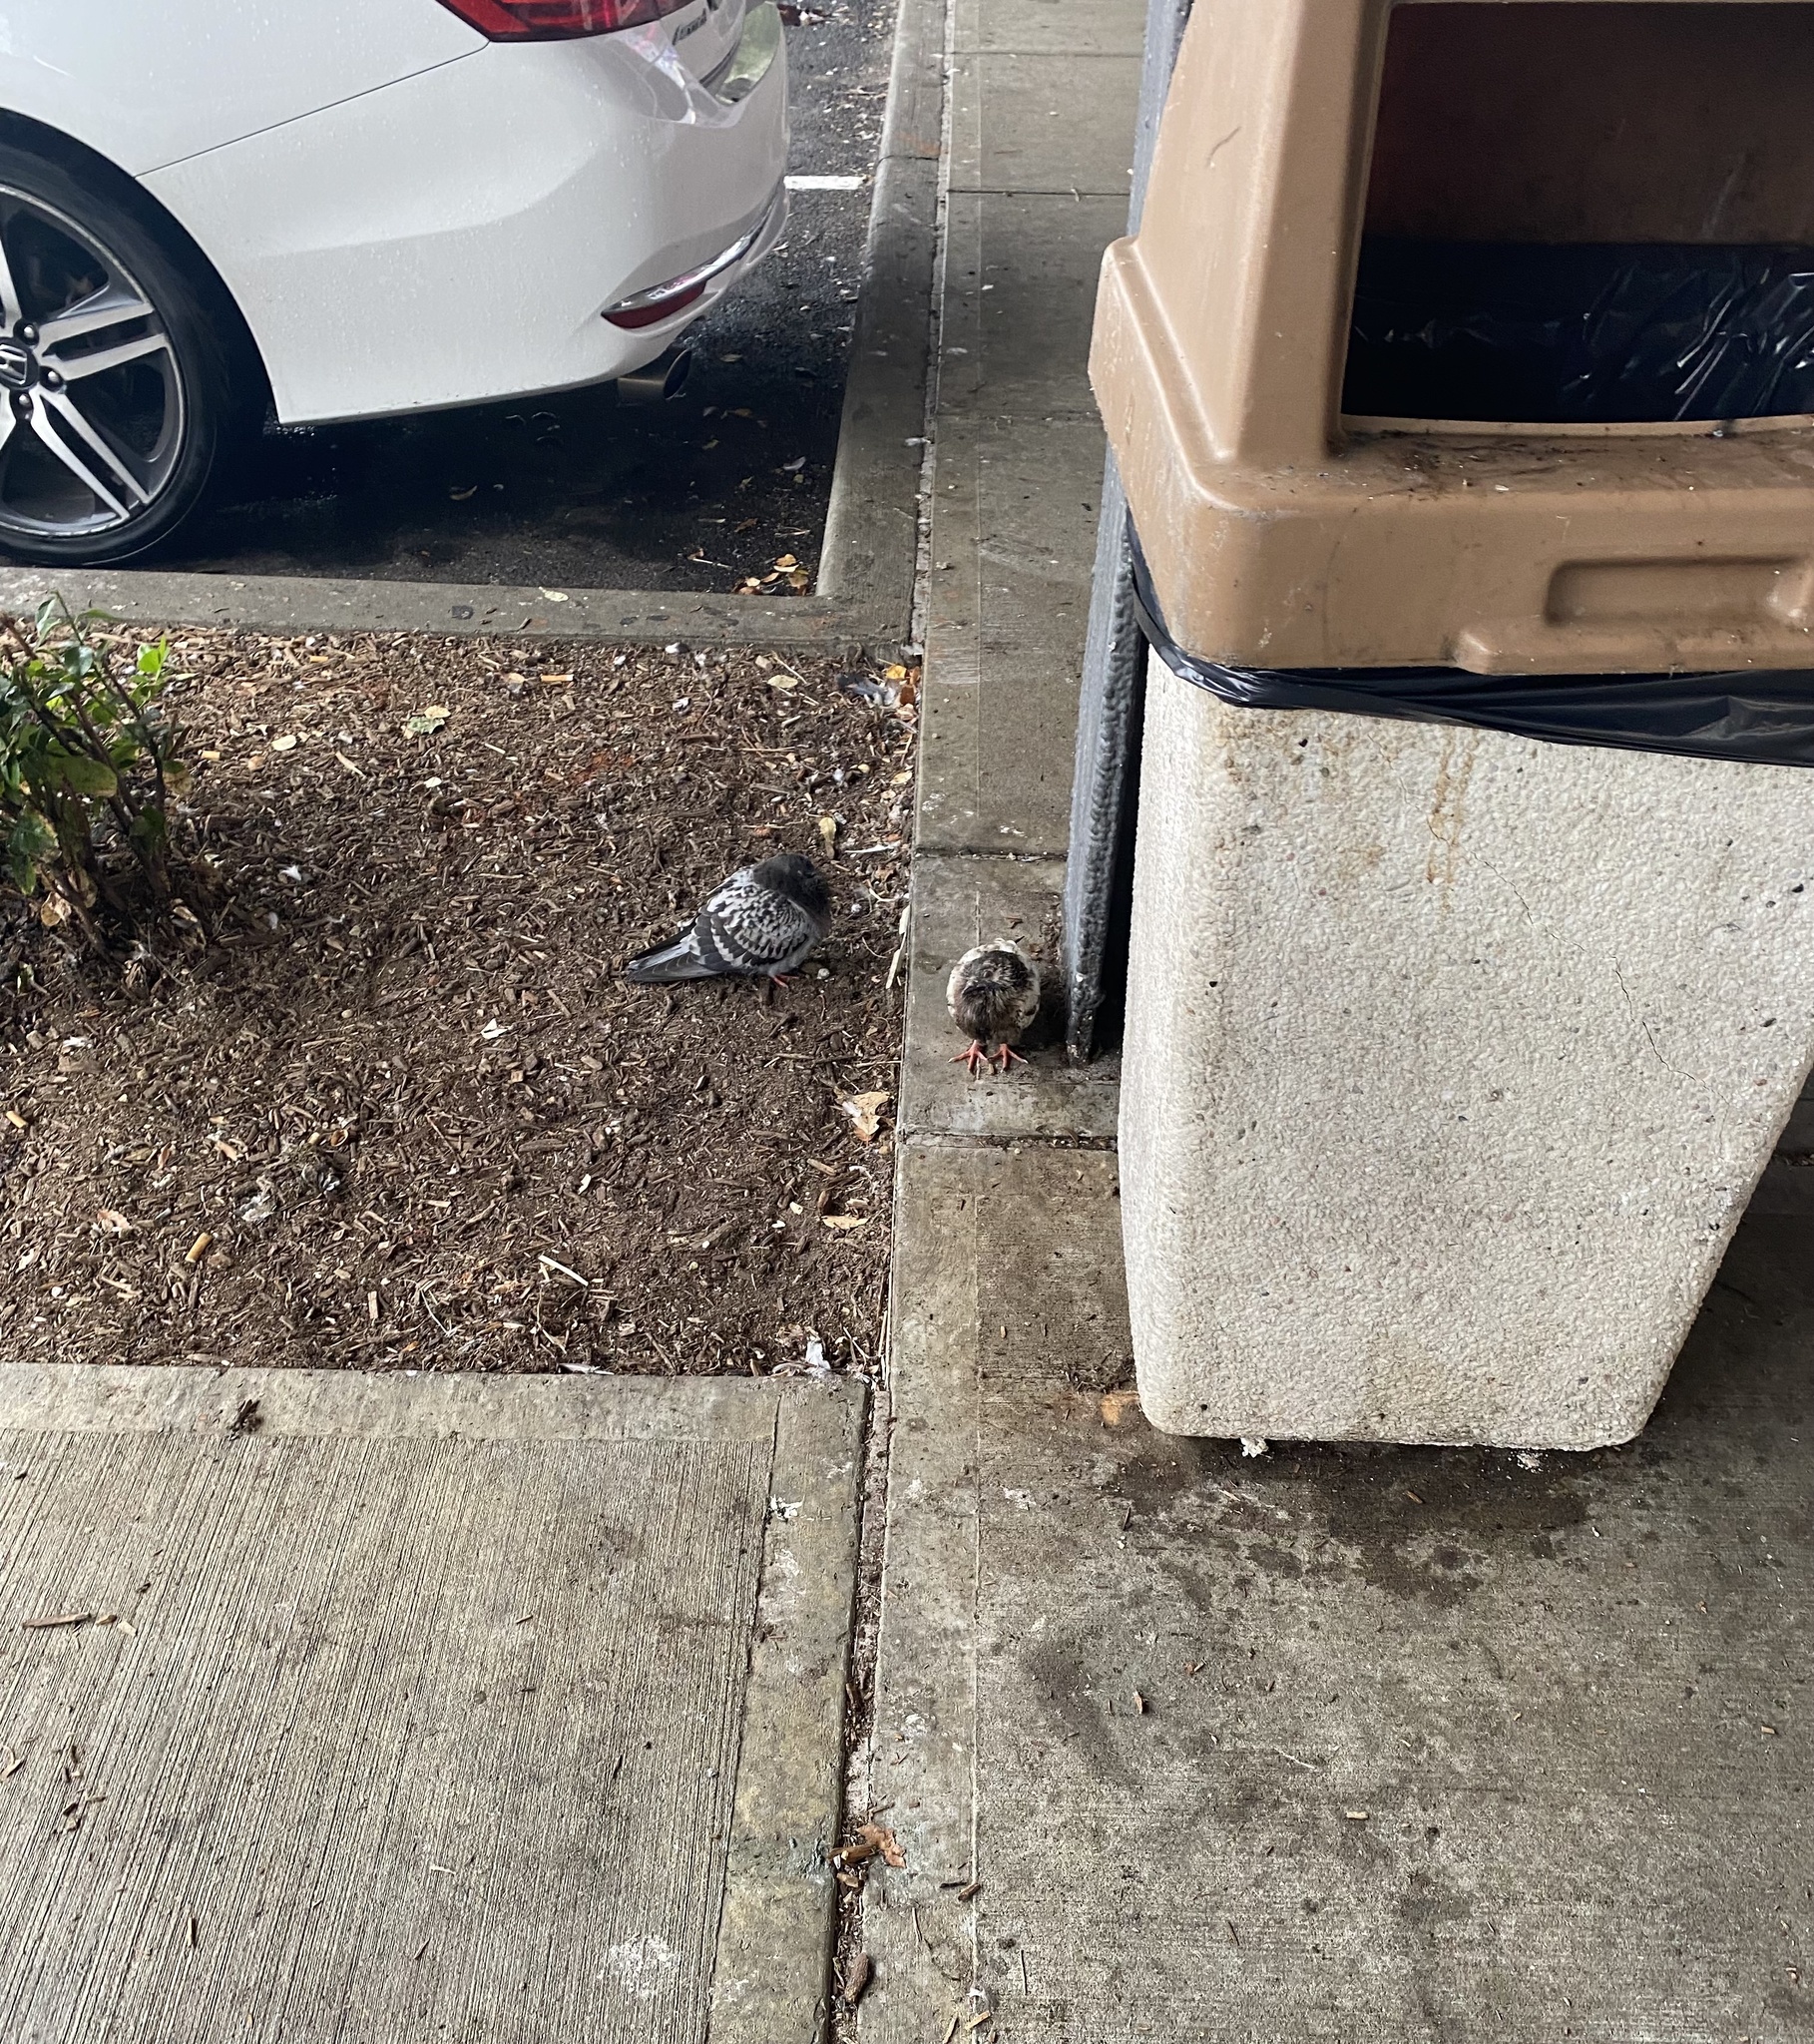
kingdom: Animalia
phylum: Chordata
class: Aves
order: Columbiformes
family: Columbidae
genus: Columba
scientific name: Columba livia
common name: Rock pigeon
